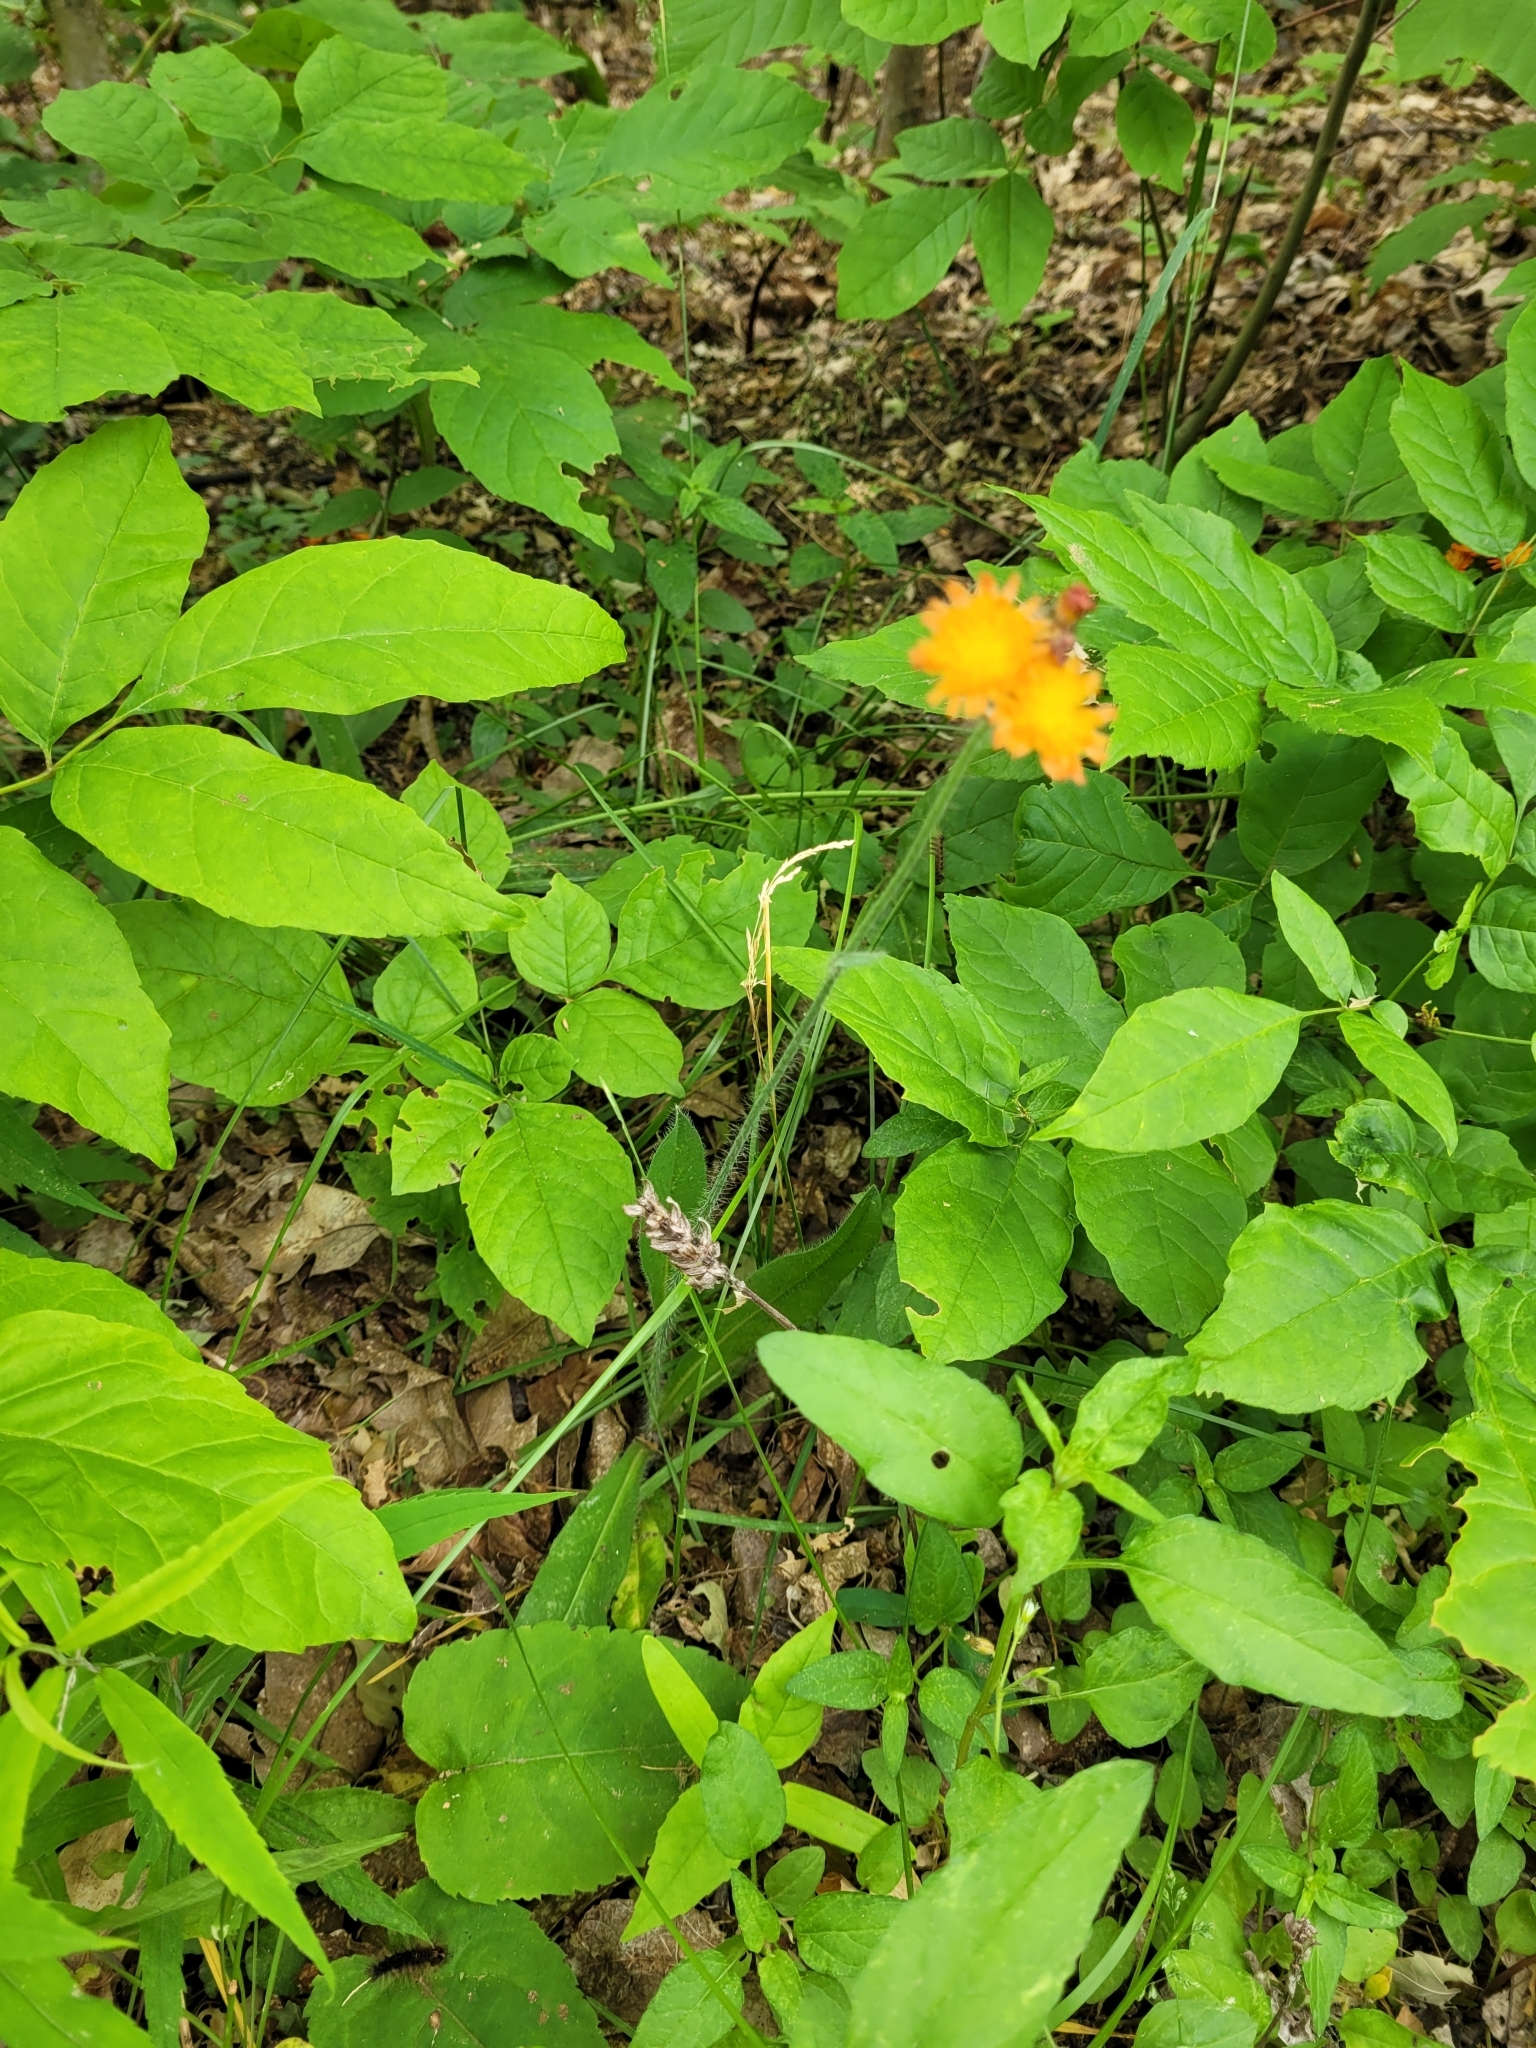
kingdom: Plantae
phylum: Tracheophyta
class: Magnoliopsida
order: Asterales
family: Asteraceae
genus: Pilosella
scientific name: Pilosella aurantiaca
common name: Fox-and-cubs
